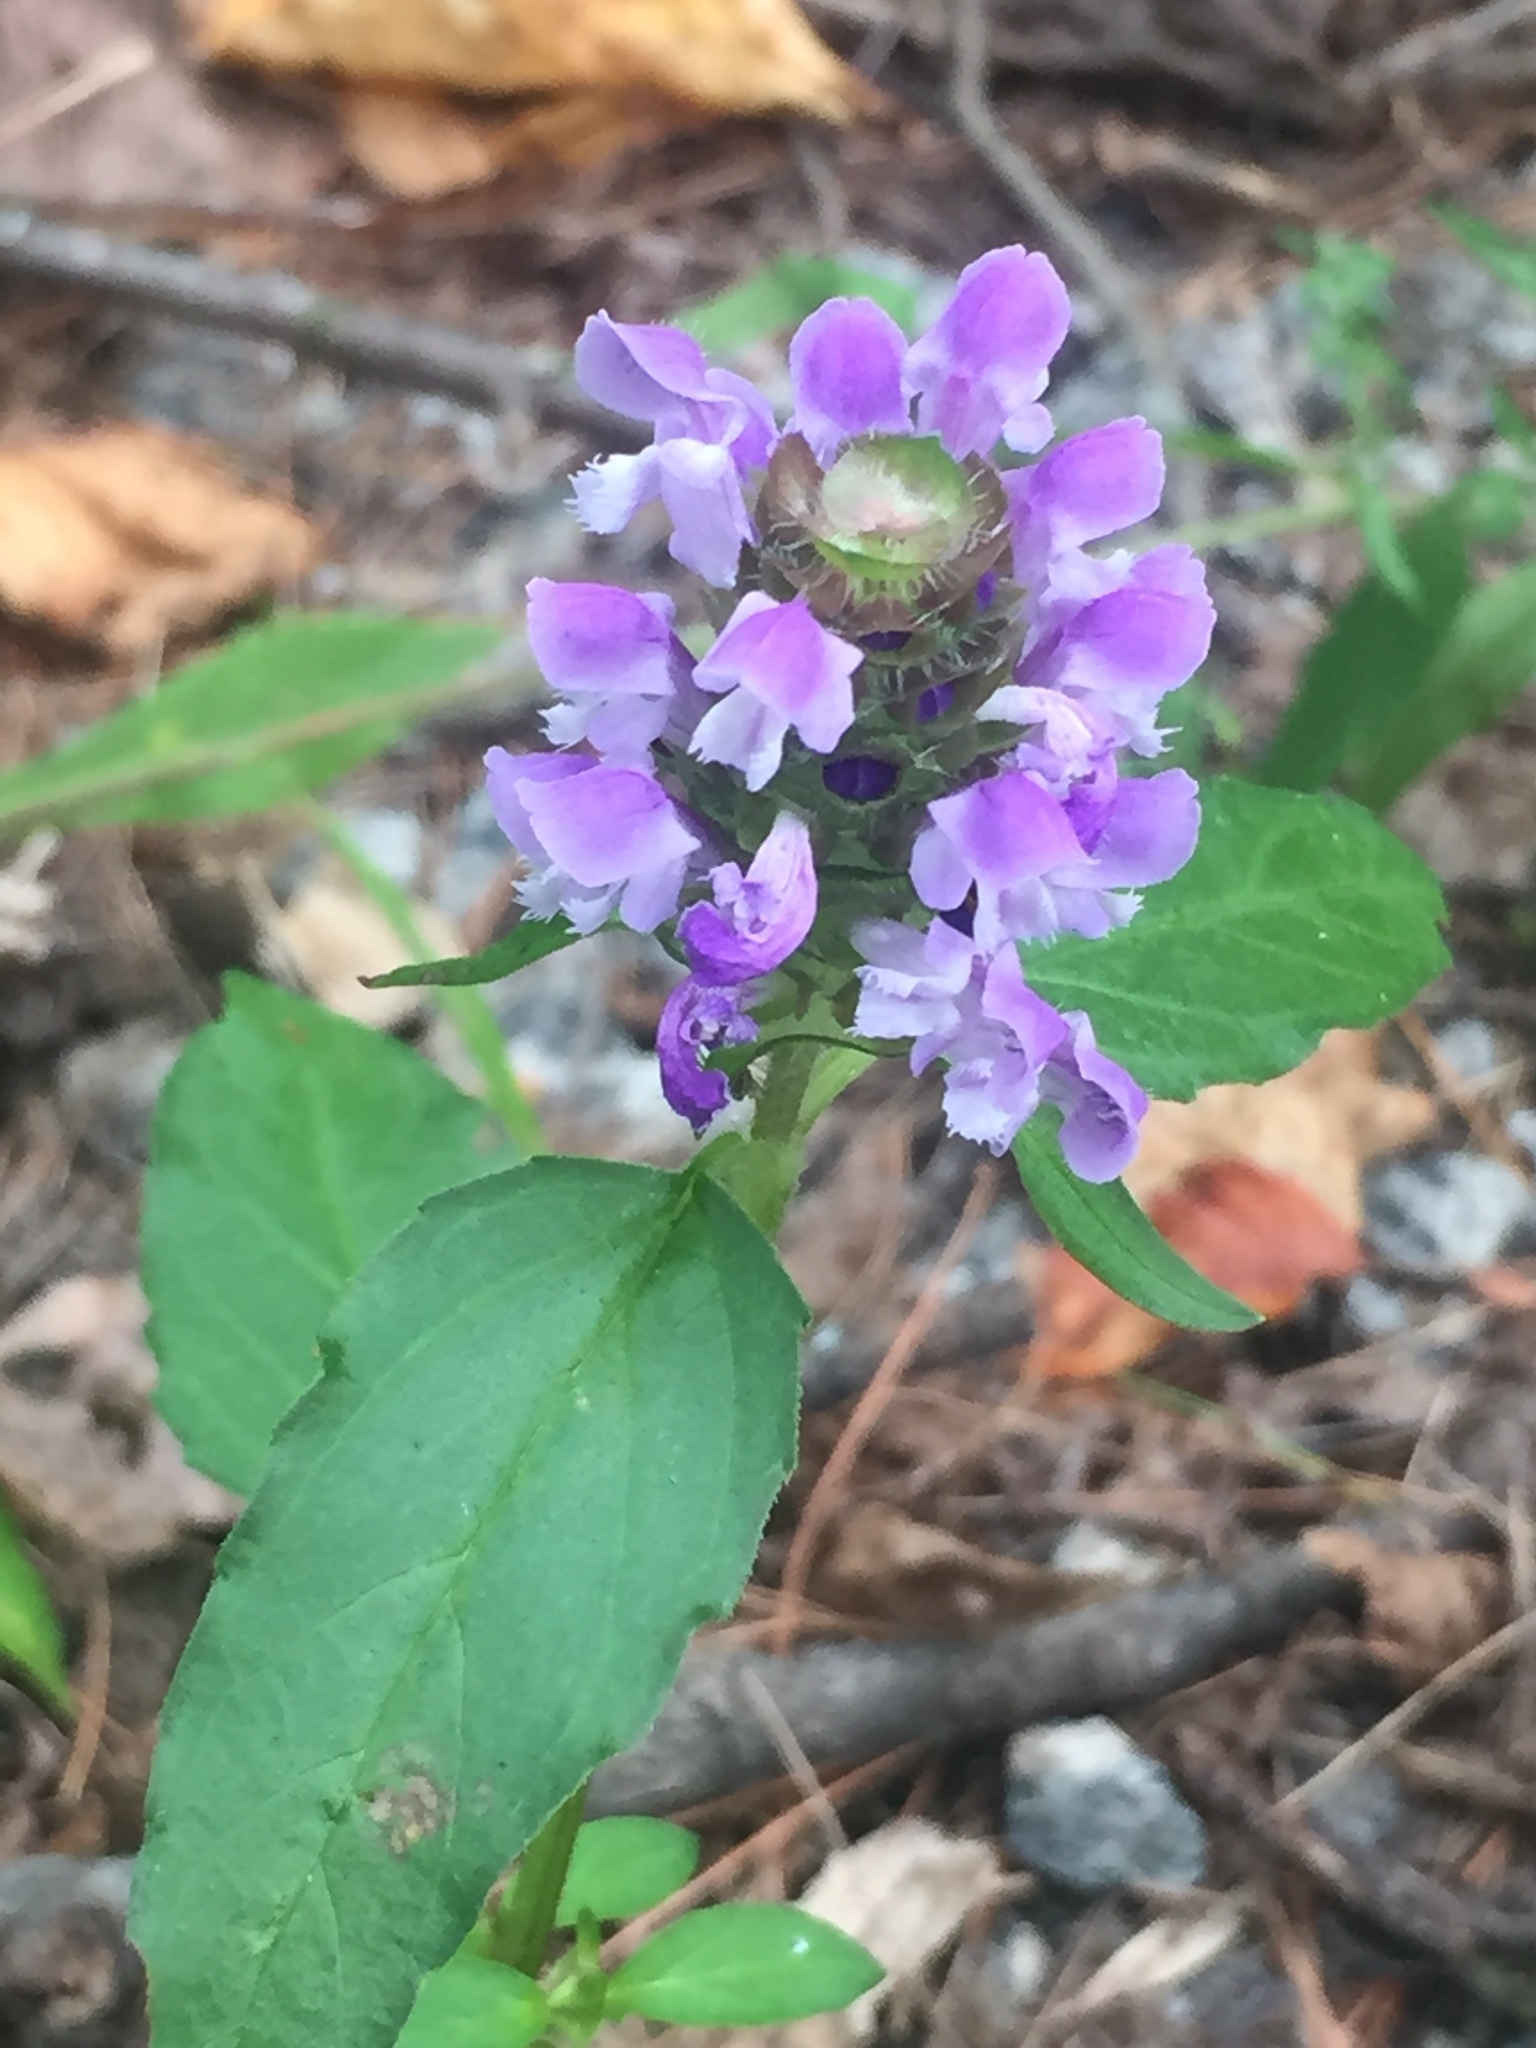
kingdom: Plantae
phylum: Tracheophyta
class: Magnoliopsida
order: Lamiales
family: Lamiaceae
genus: Prunella
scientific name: Prunella vulgaris
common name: Heal-all
